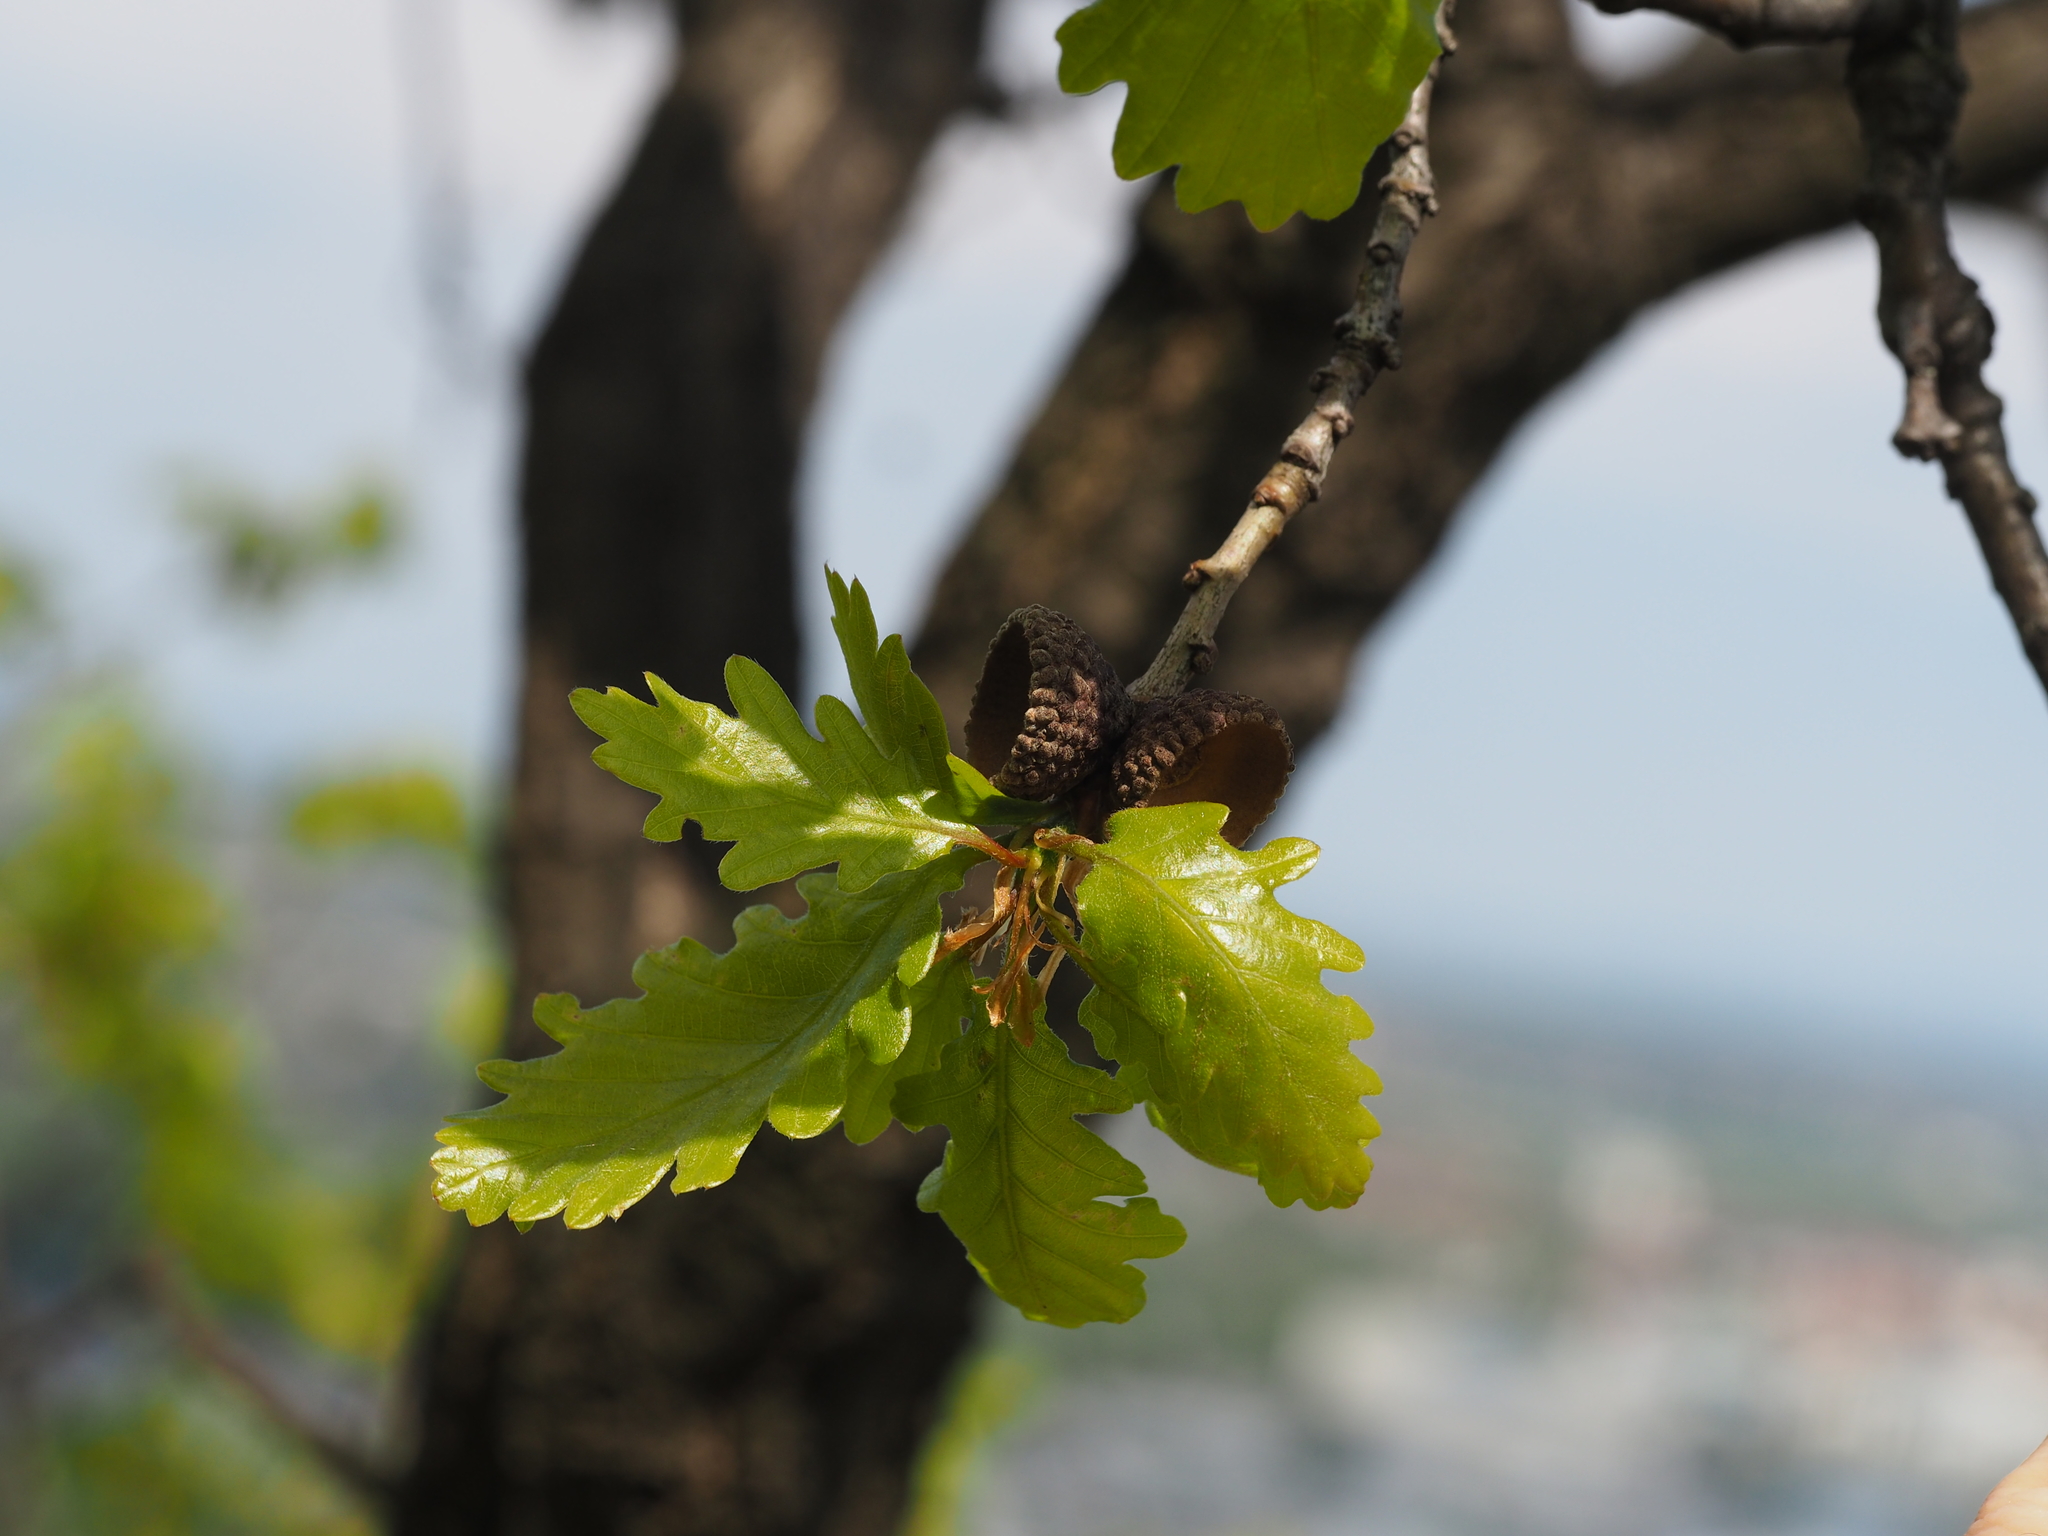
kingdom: Plantae
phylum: Tracheophyta
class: Magnoliopsida
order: Fagales
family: Fagaceae
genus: Quercus
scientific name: Quercus petraea
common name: Sessile oak
